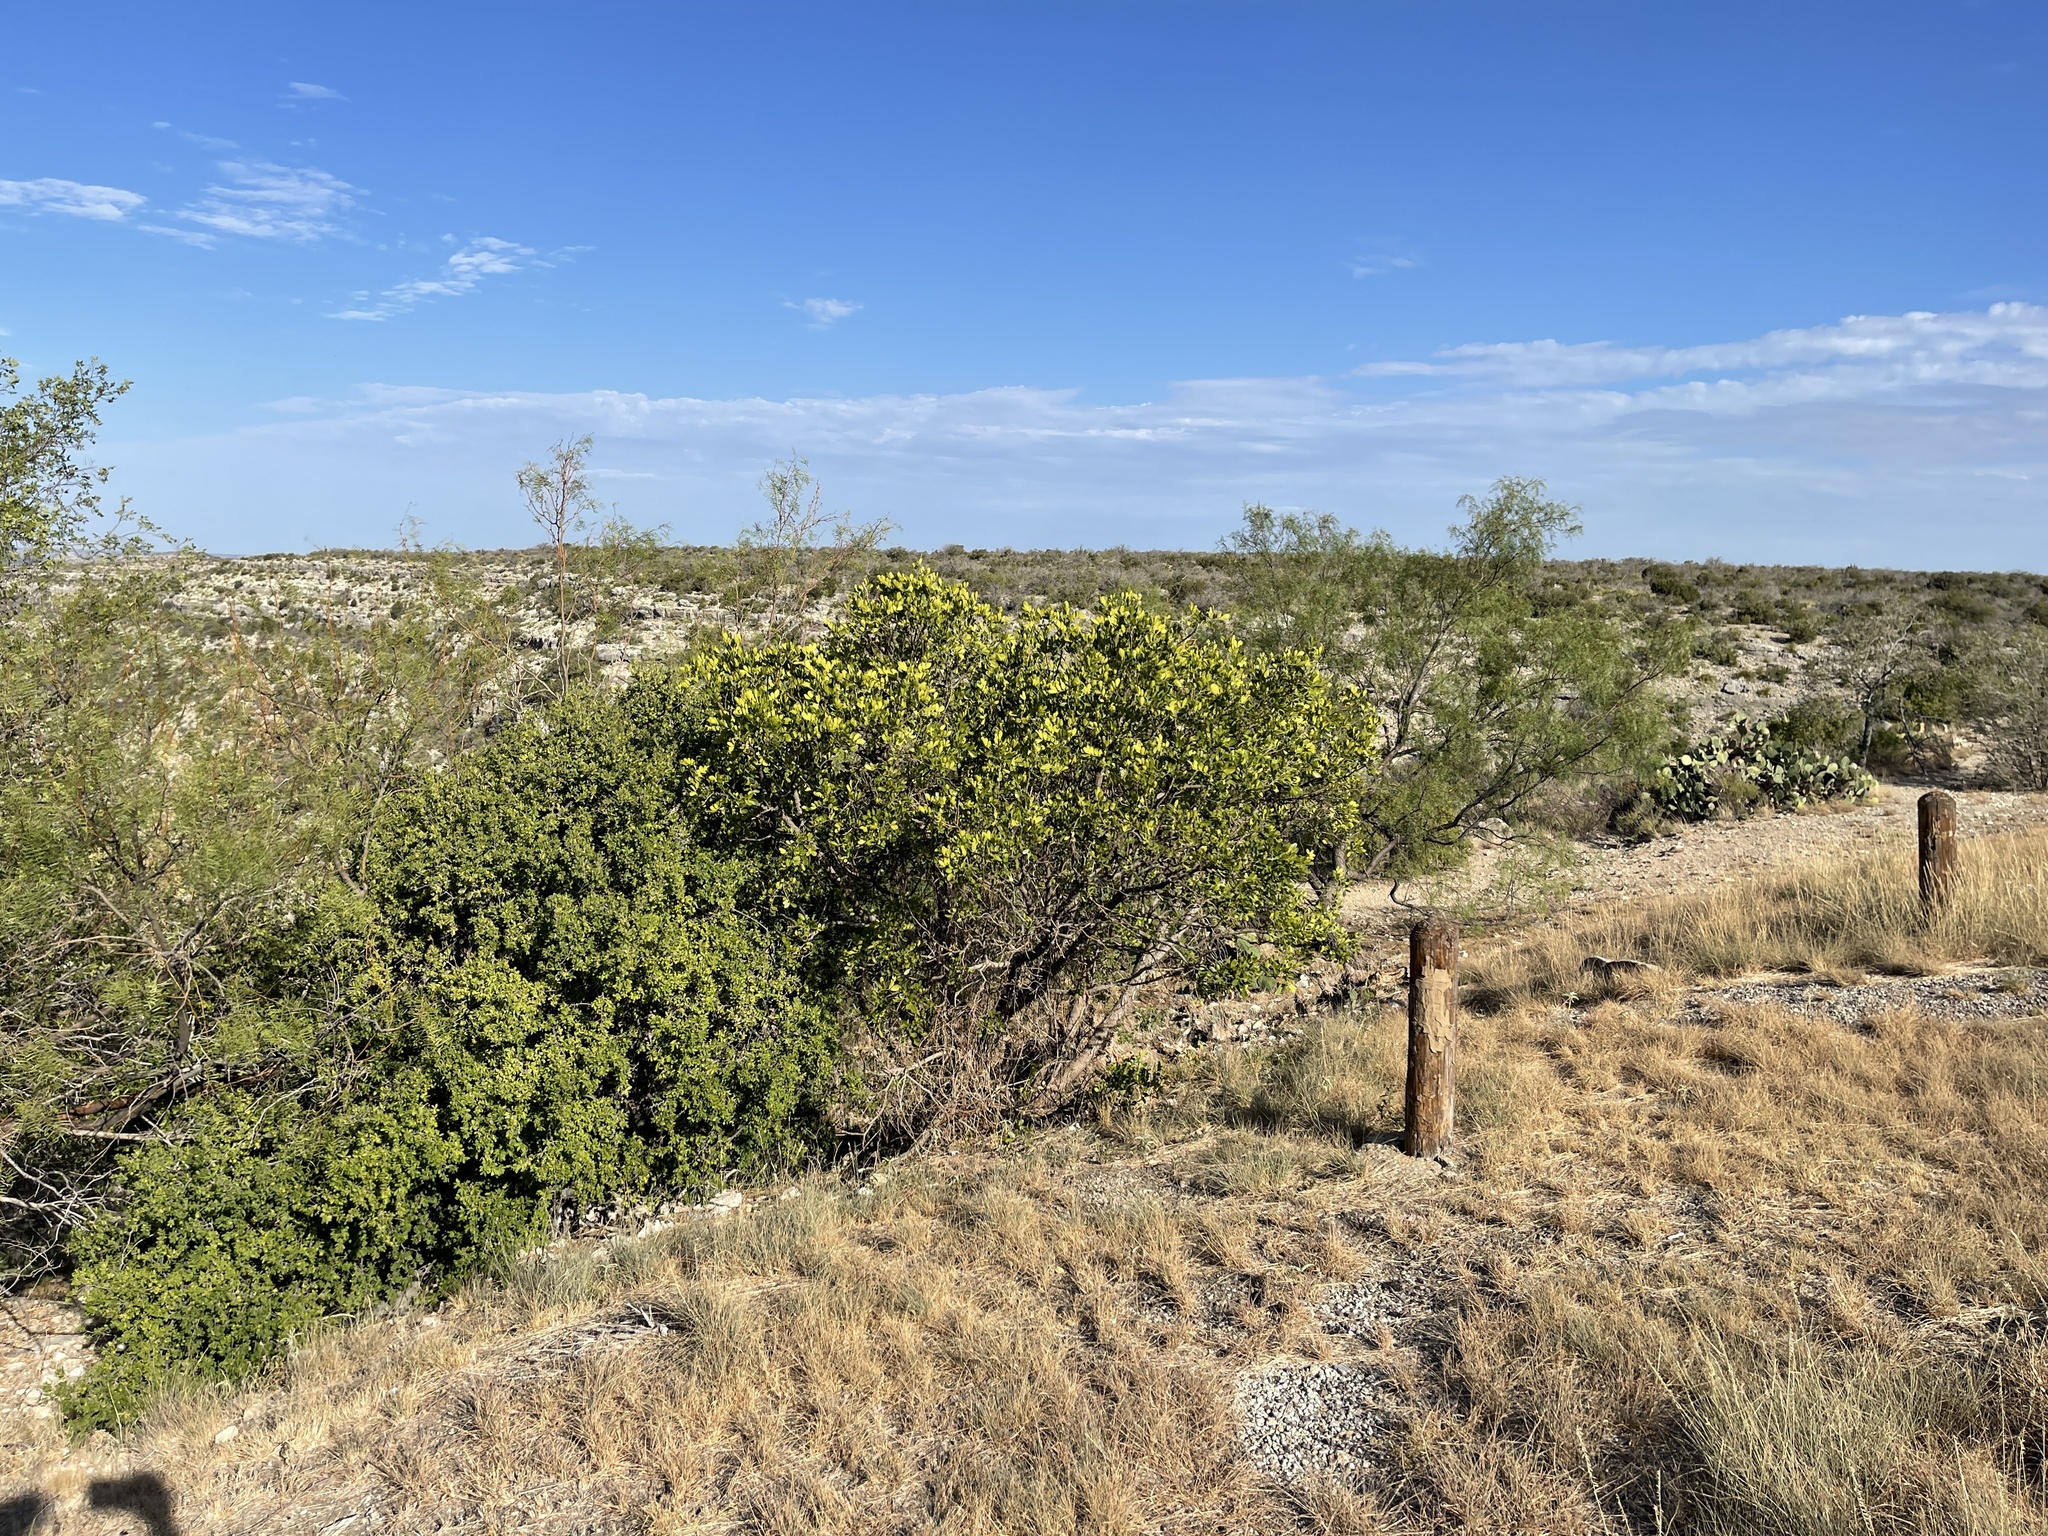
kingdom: Plantae
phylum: Tracheophyta
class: Magnoliopsida
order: Fabales
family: Fabaceae
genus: Dermatophyllum
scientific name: Dermatophyllum secundiflorum
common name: Texas-mountain-laurel
